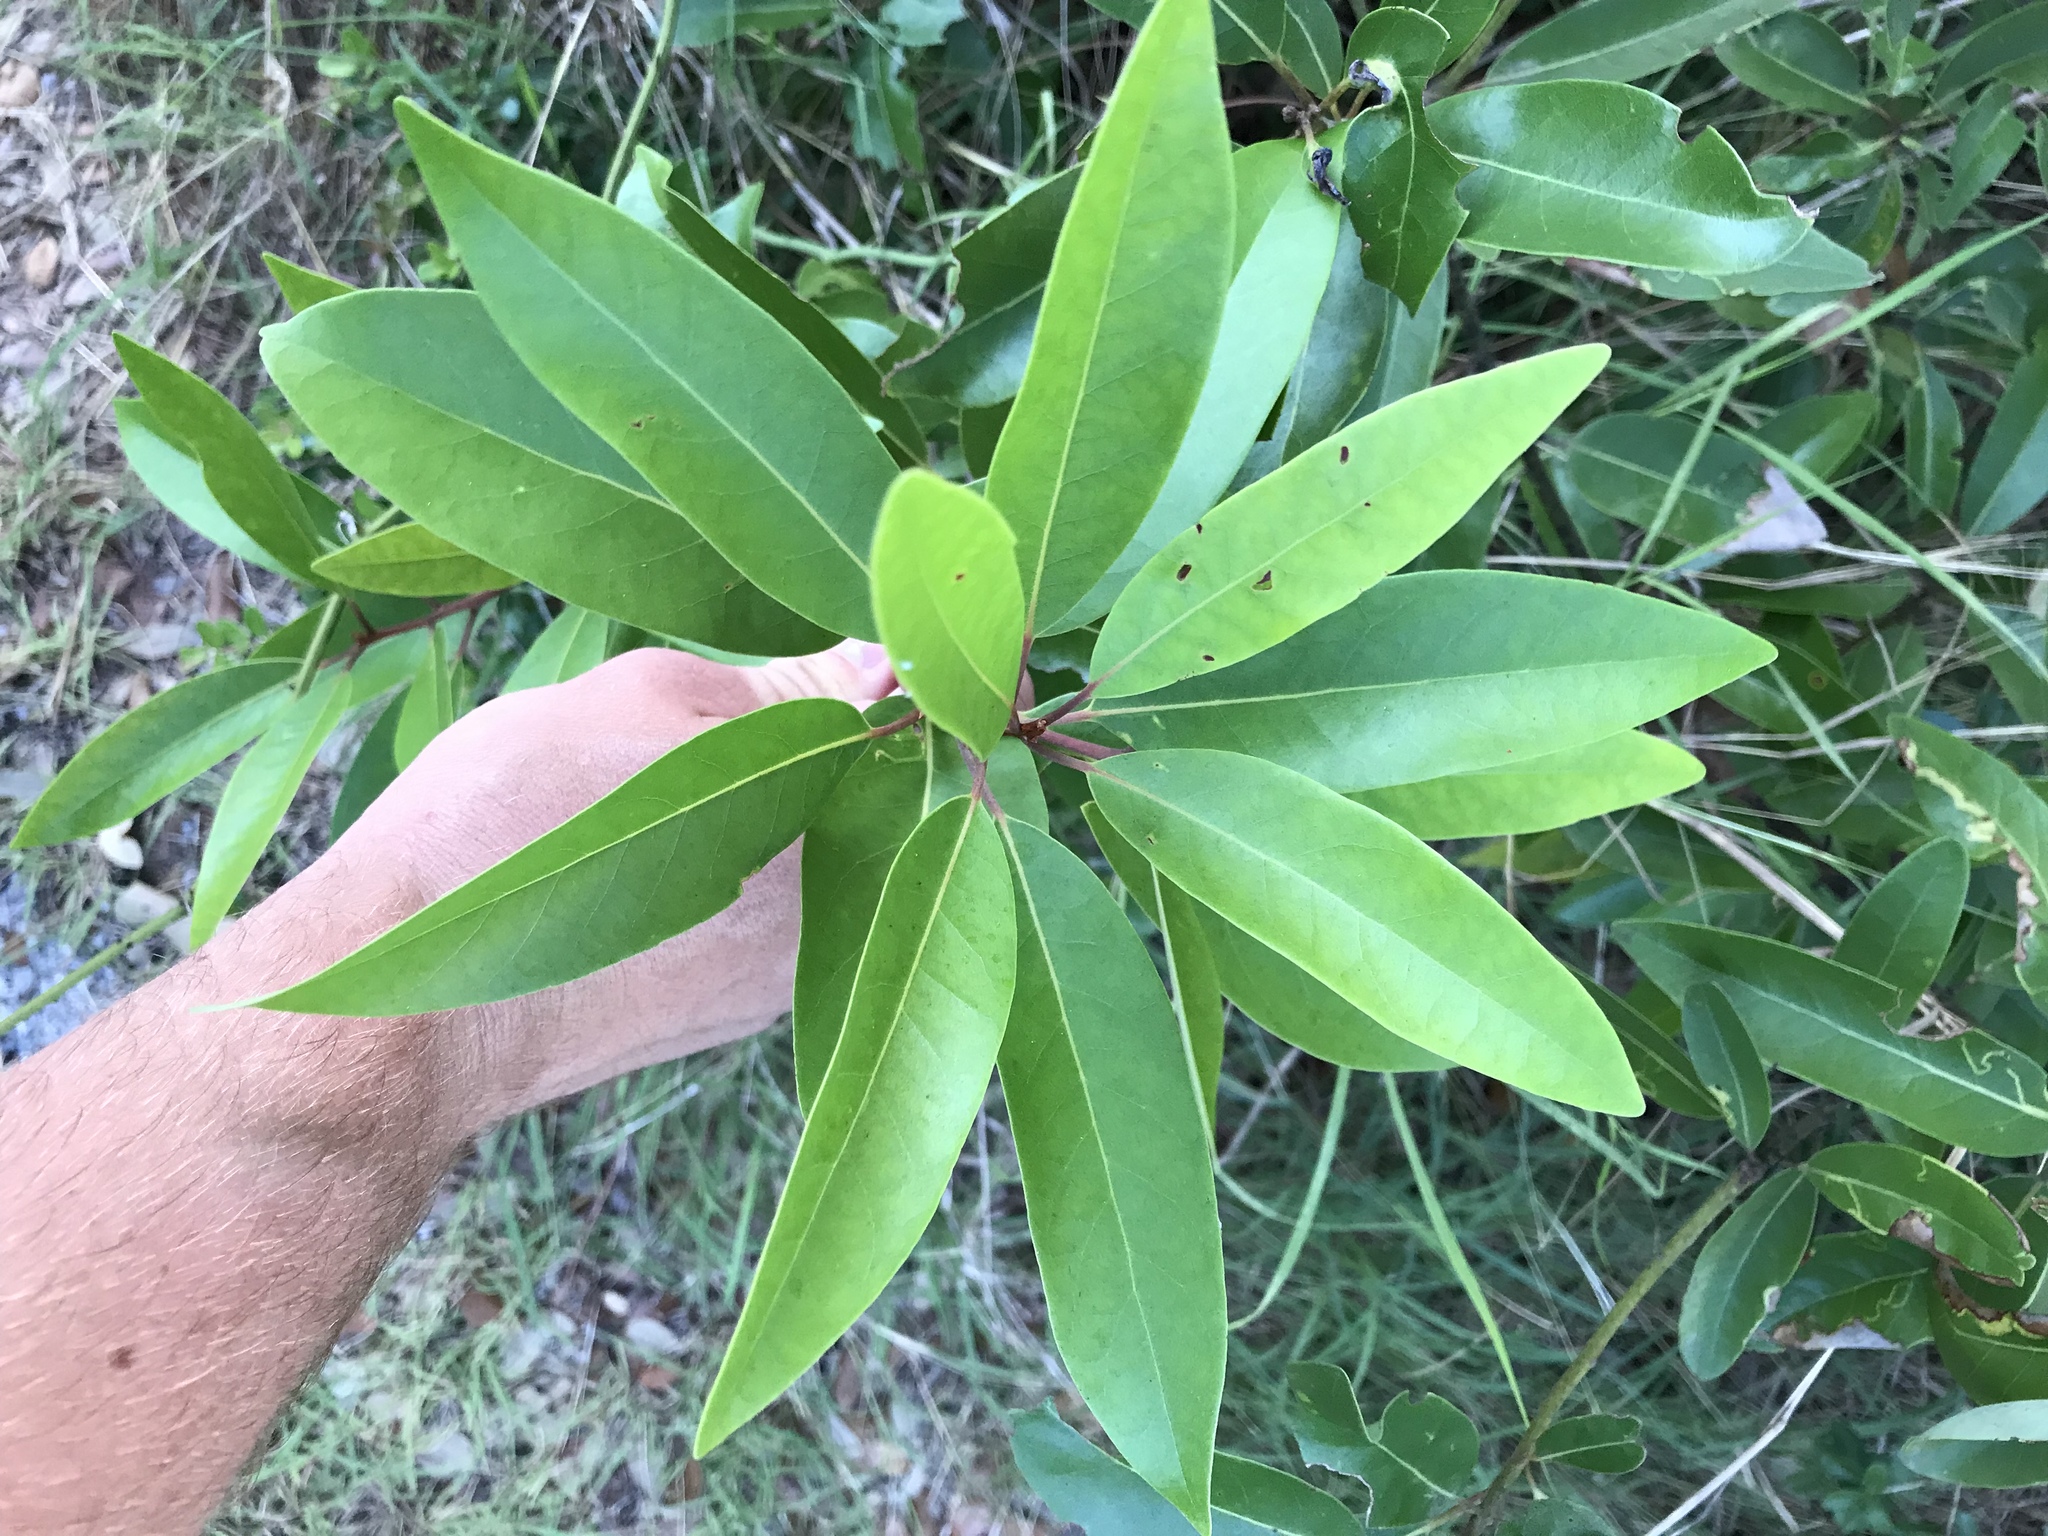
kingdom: Plantae
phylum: Tracheophyta
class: Magnoliopsida
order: Laurales
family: Lauraceae
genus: Persea
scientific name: Persea borbonia
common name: Redbay
